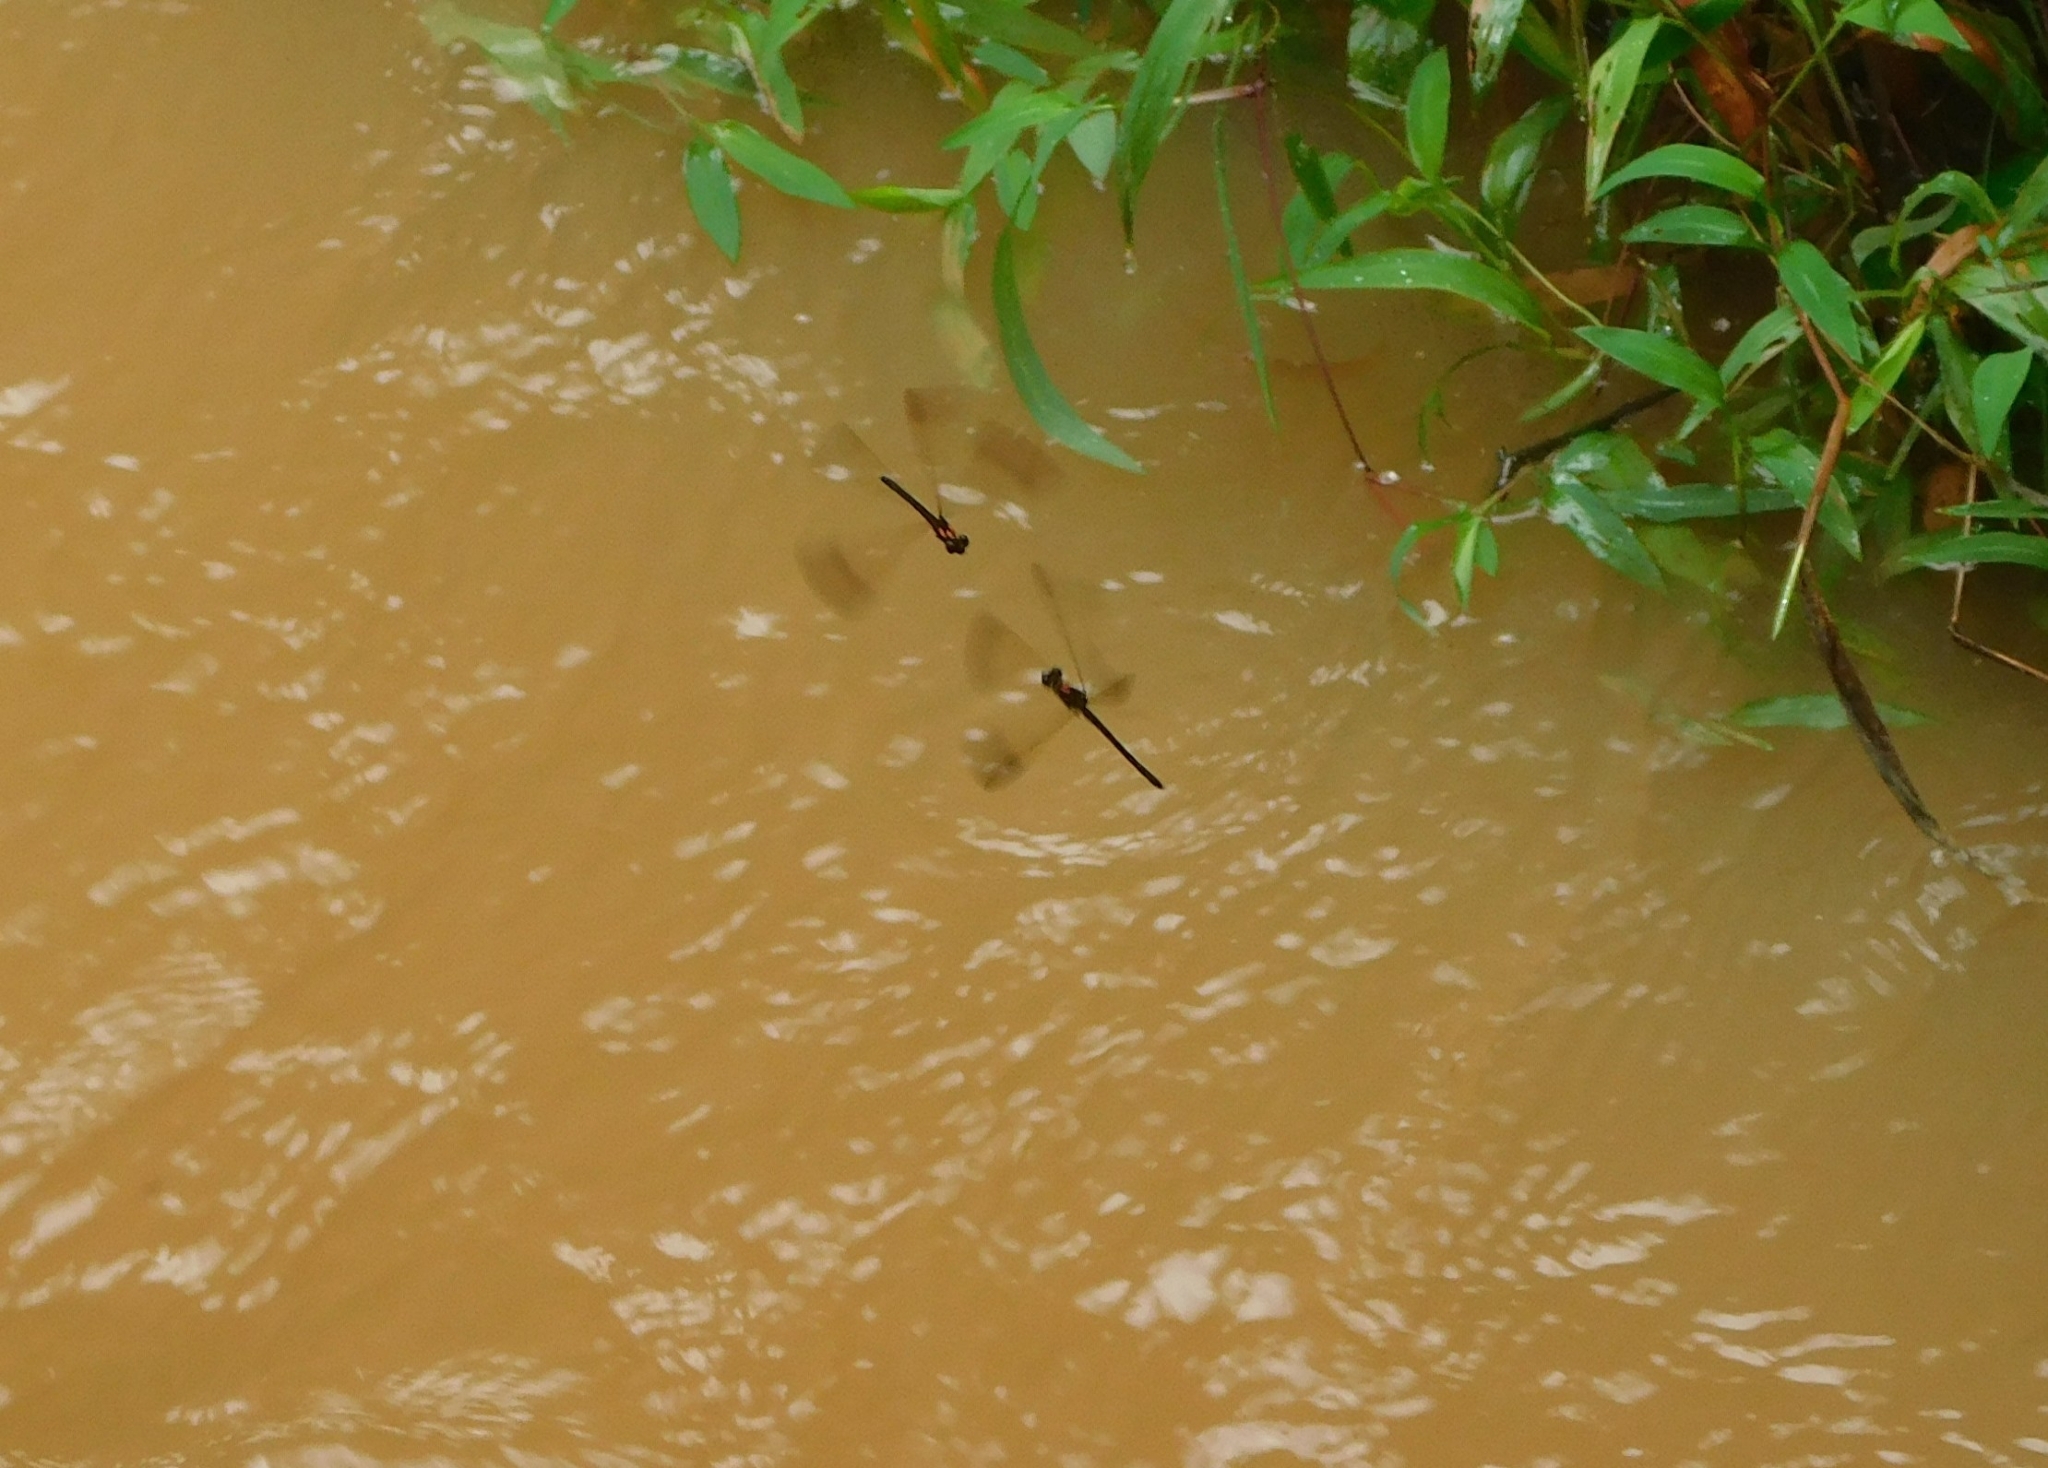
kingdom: Animalia
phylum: Arthropoda
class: Insecta
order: Odonata
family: Chlorocyphidae
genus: Heliocypha
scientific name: Heliocypha bisignata
